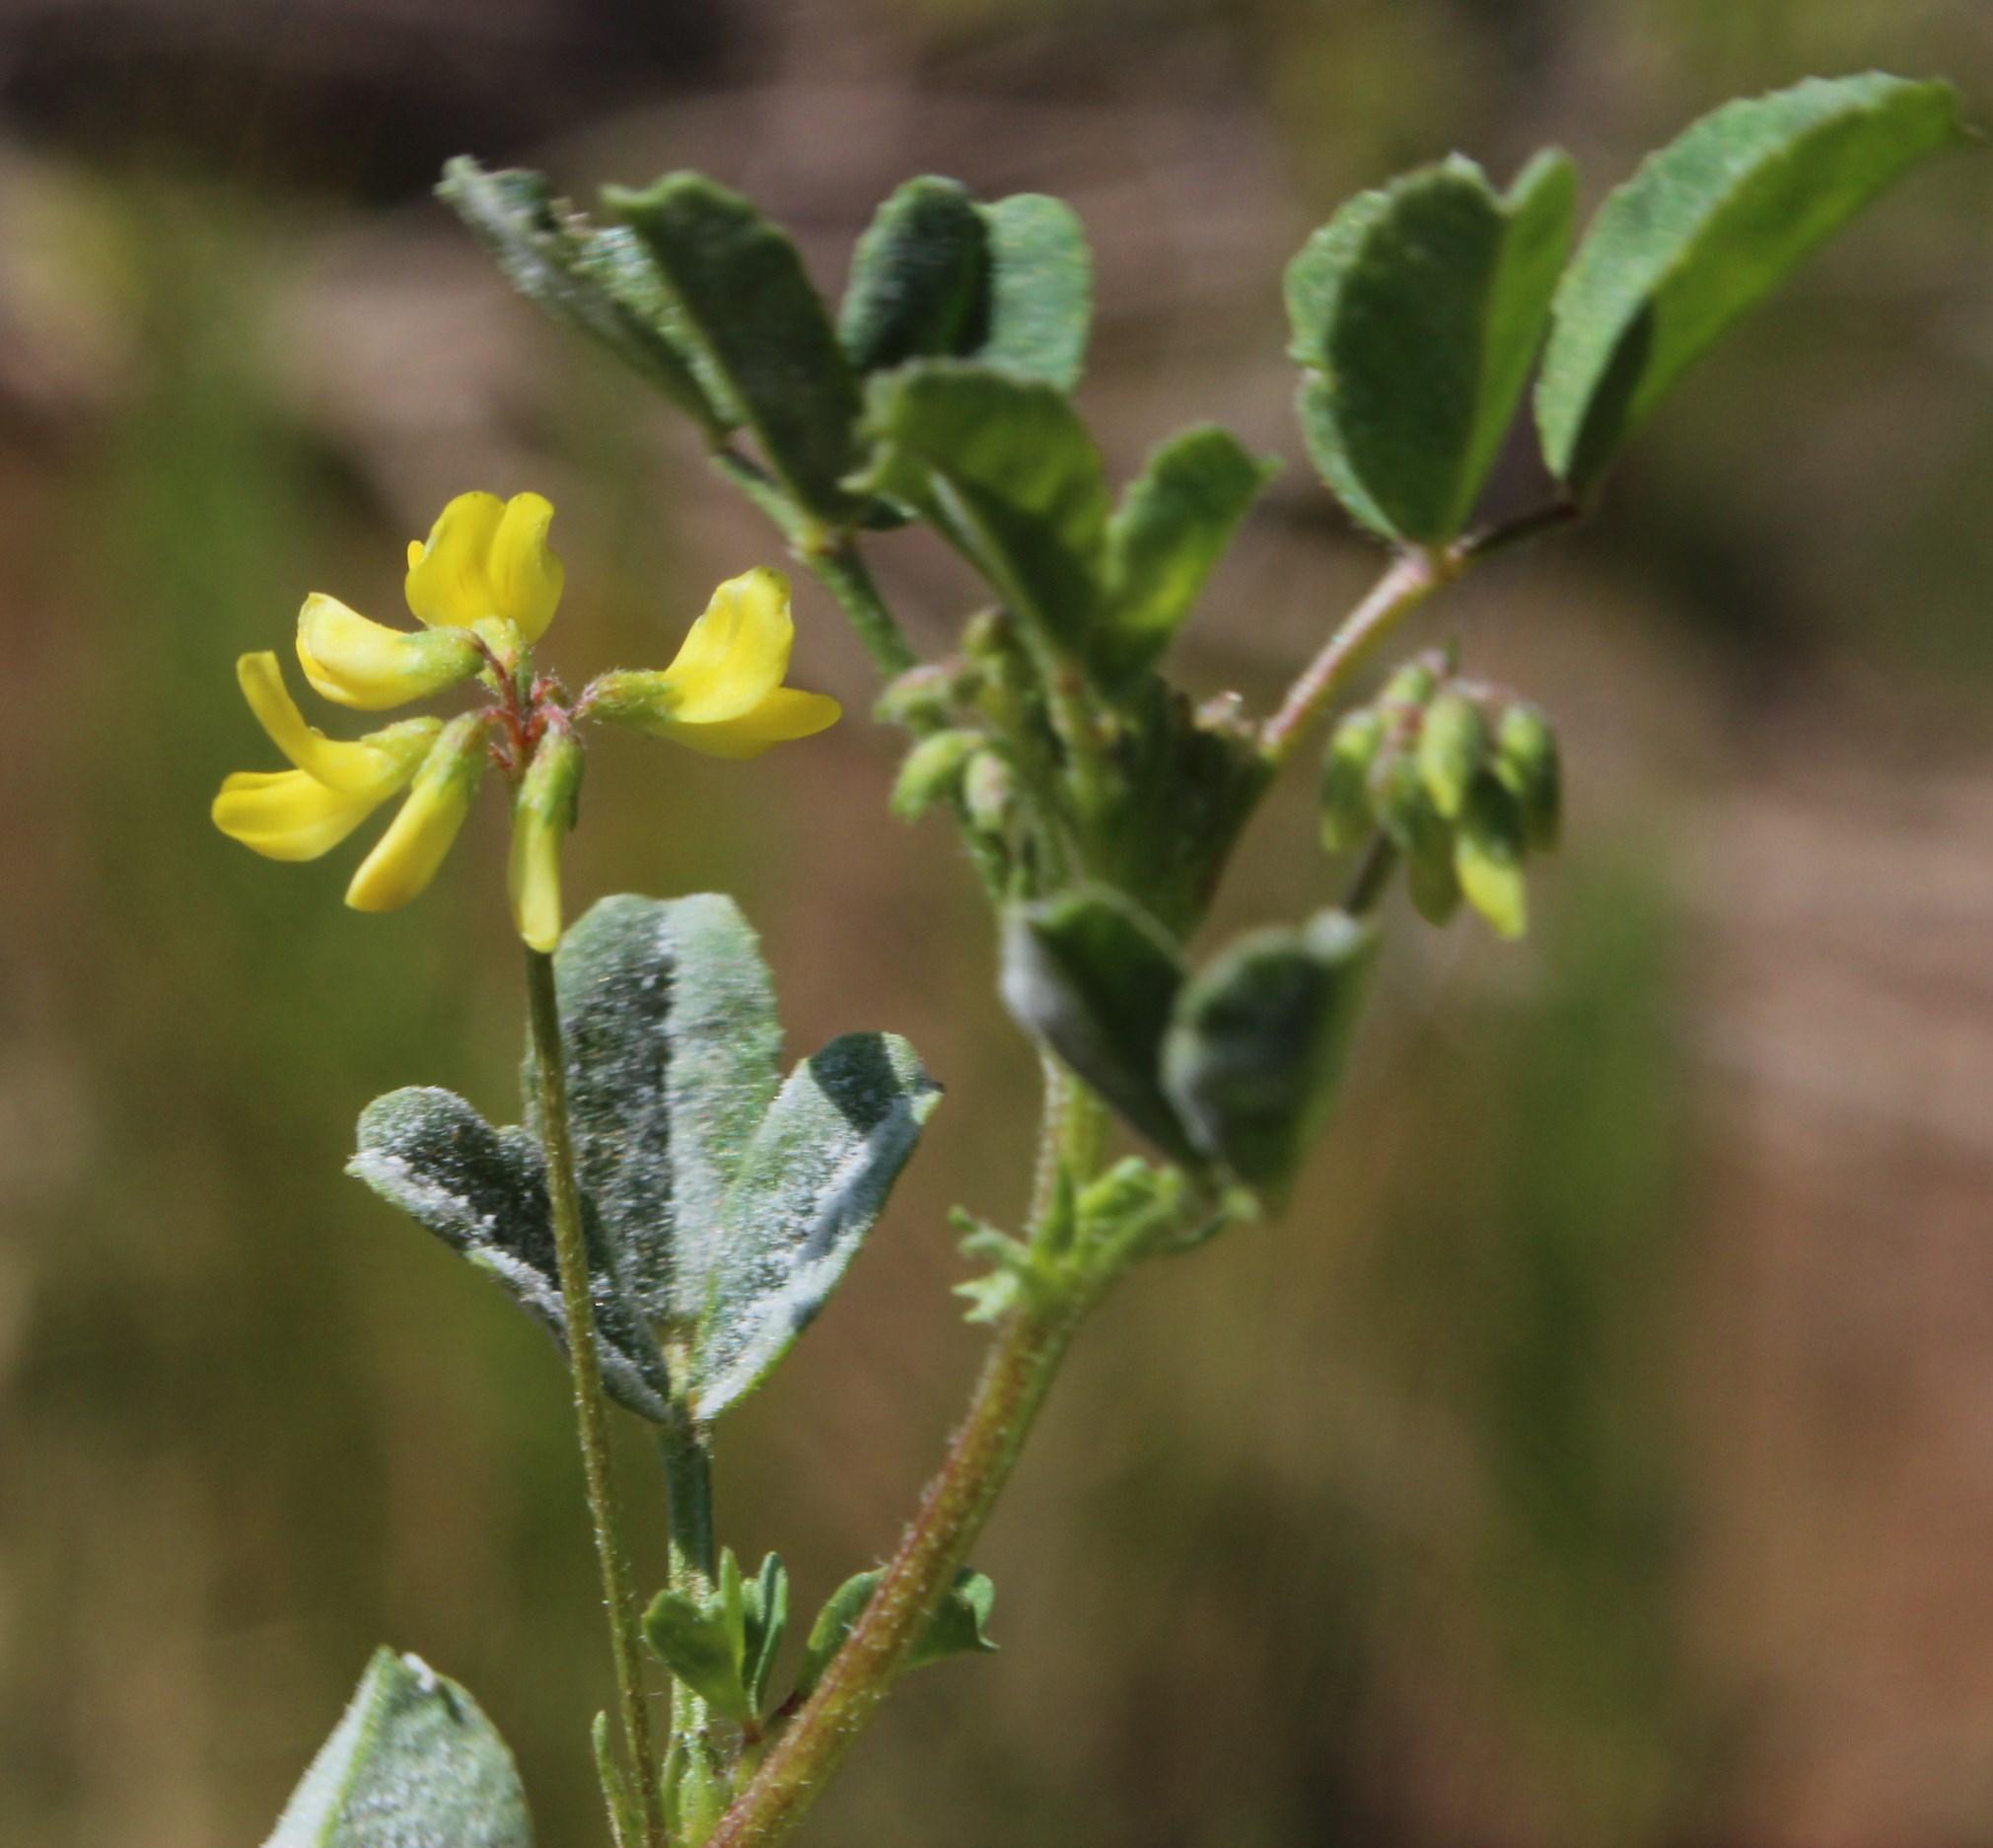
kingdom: Plantae
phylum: Tracheophyta
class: Magnoliopsida
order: Fabales
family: Fabaceae
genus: Melilotus
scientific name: Melilotus indicus
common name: Small melilot
